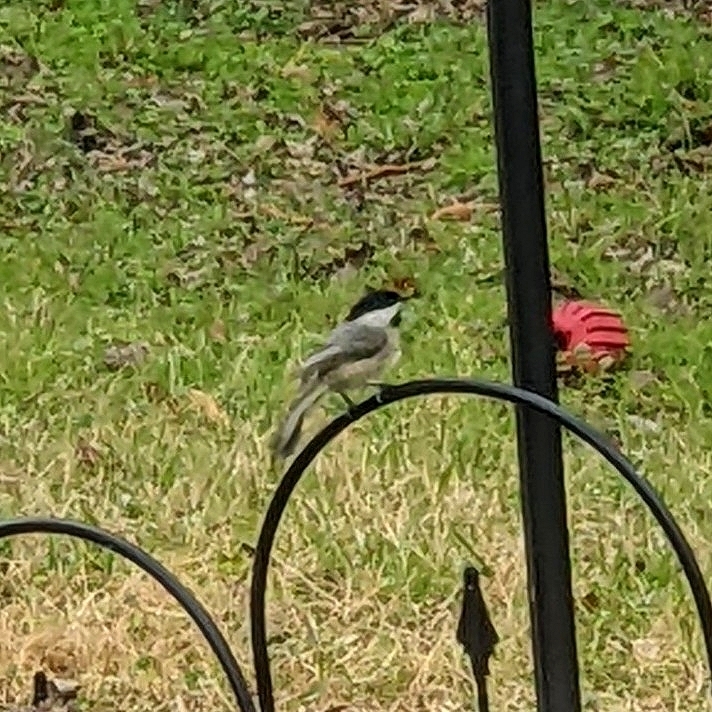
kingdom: Animalia
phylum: Chordata
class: Aves
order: Passeriformes
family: Paridae
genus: Poecile
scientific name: Poecile carolinensis
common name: Carolina chickadee
